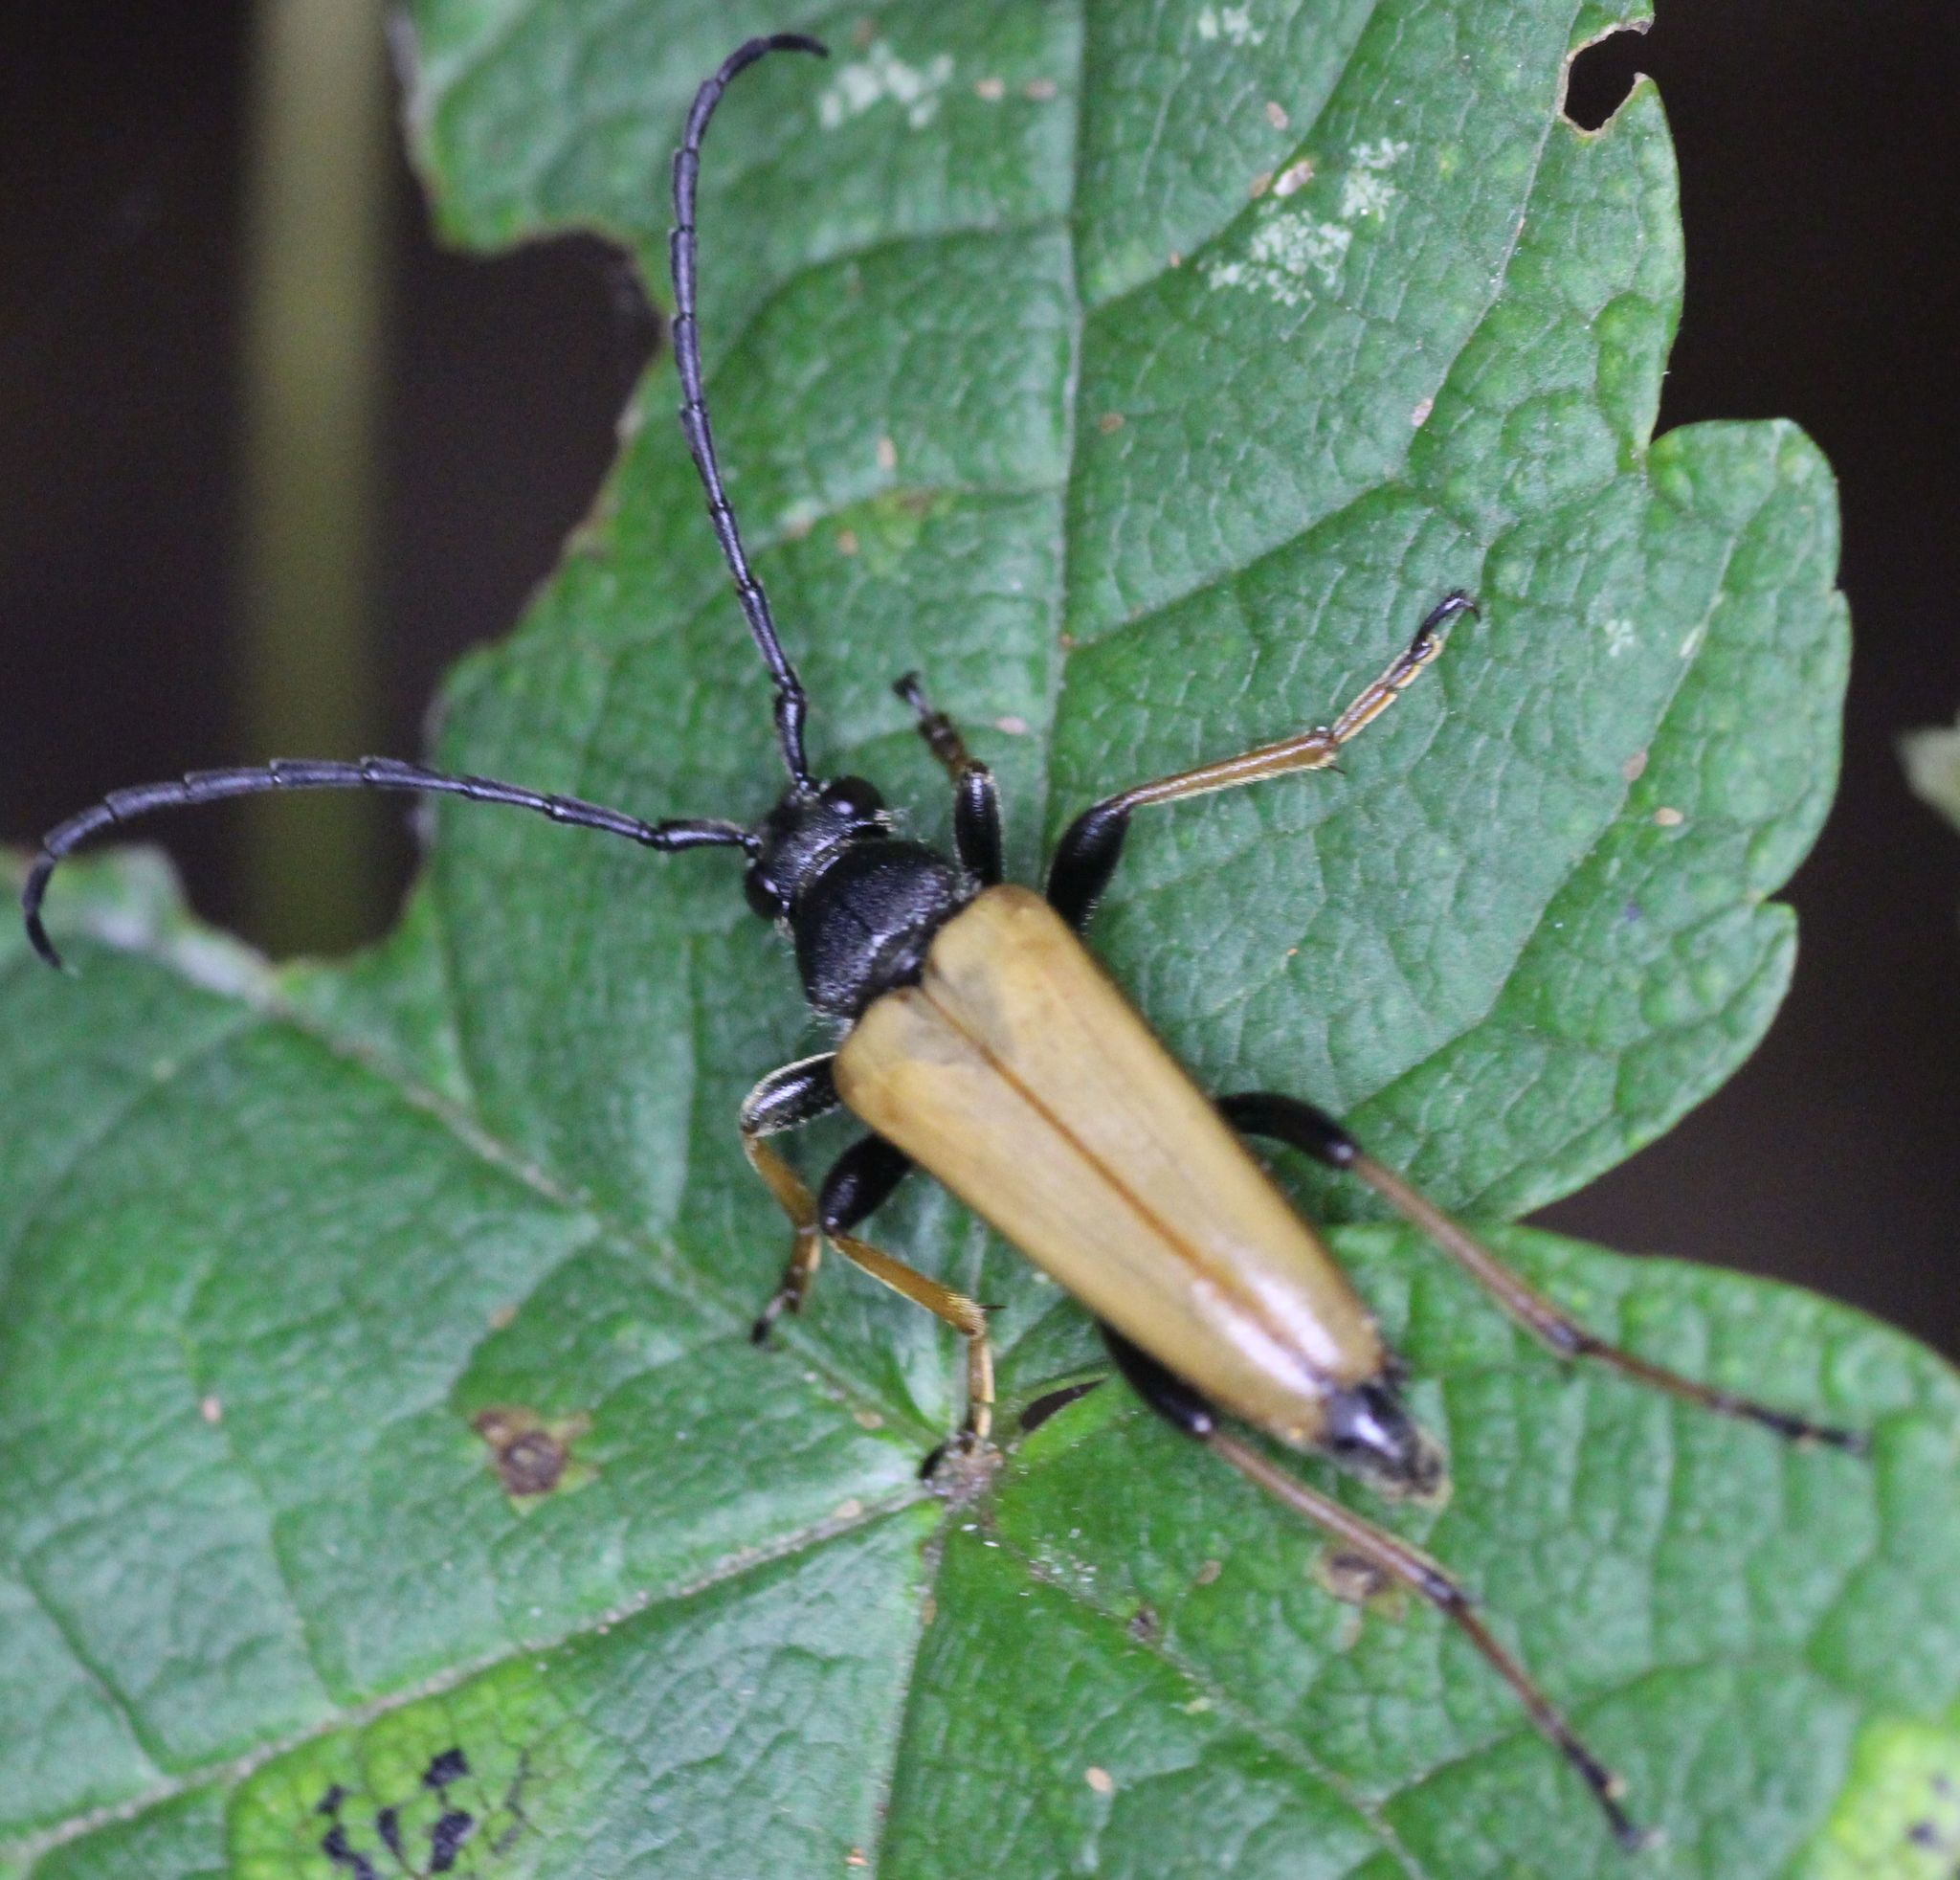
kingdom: Animalia
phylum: Arthropoda
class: Insecta
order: Coleoptera
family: Cerambycidae
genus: Stictoleptura
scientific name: Stictoleptura rubra
